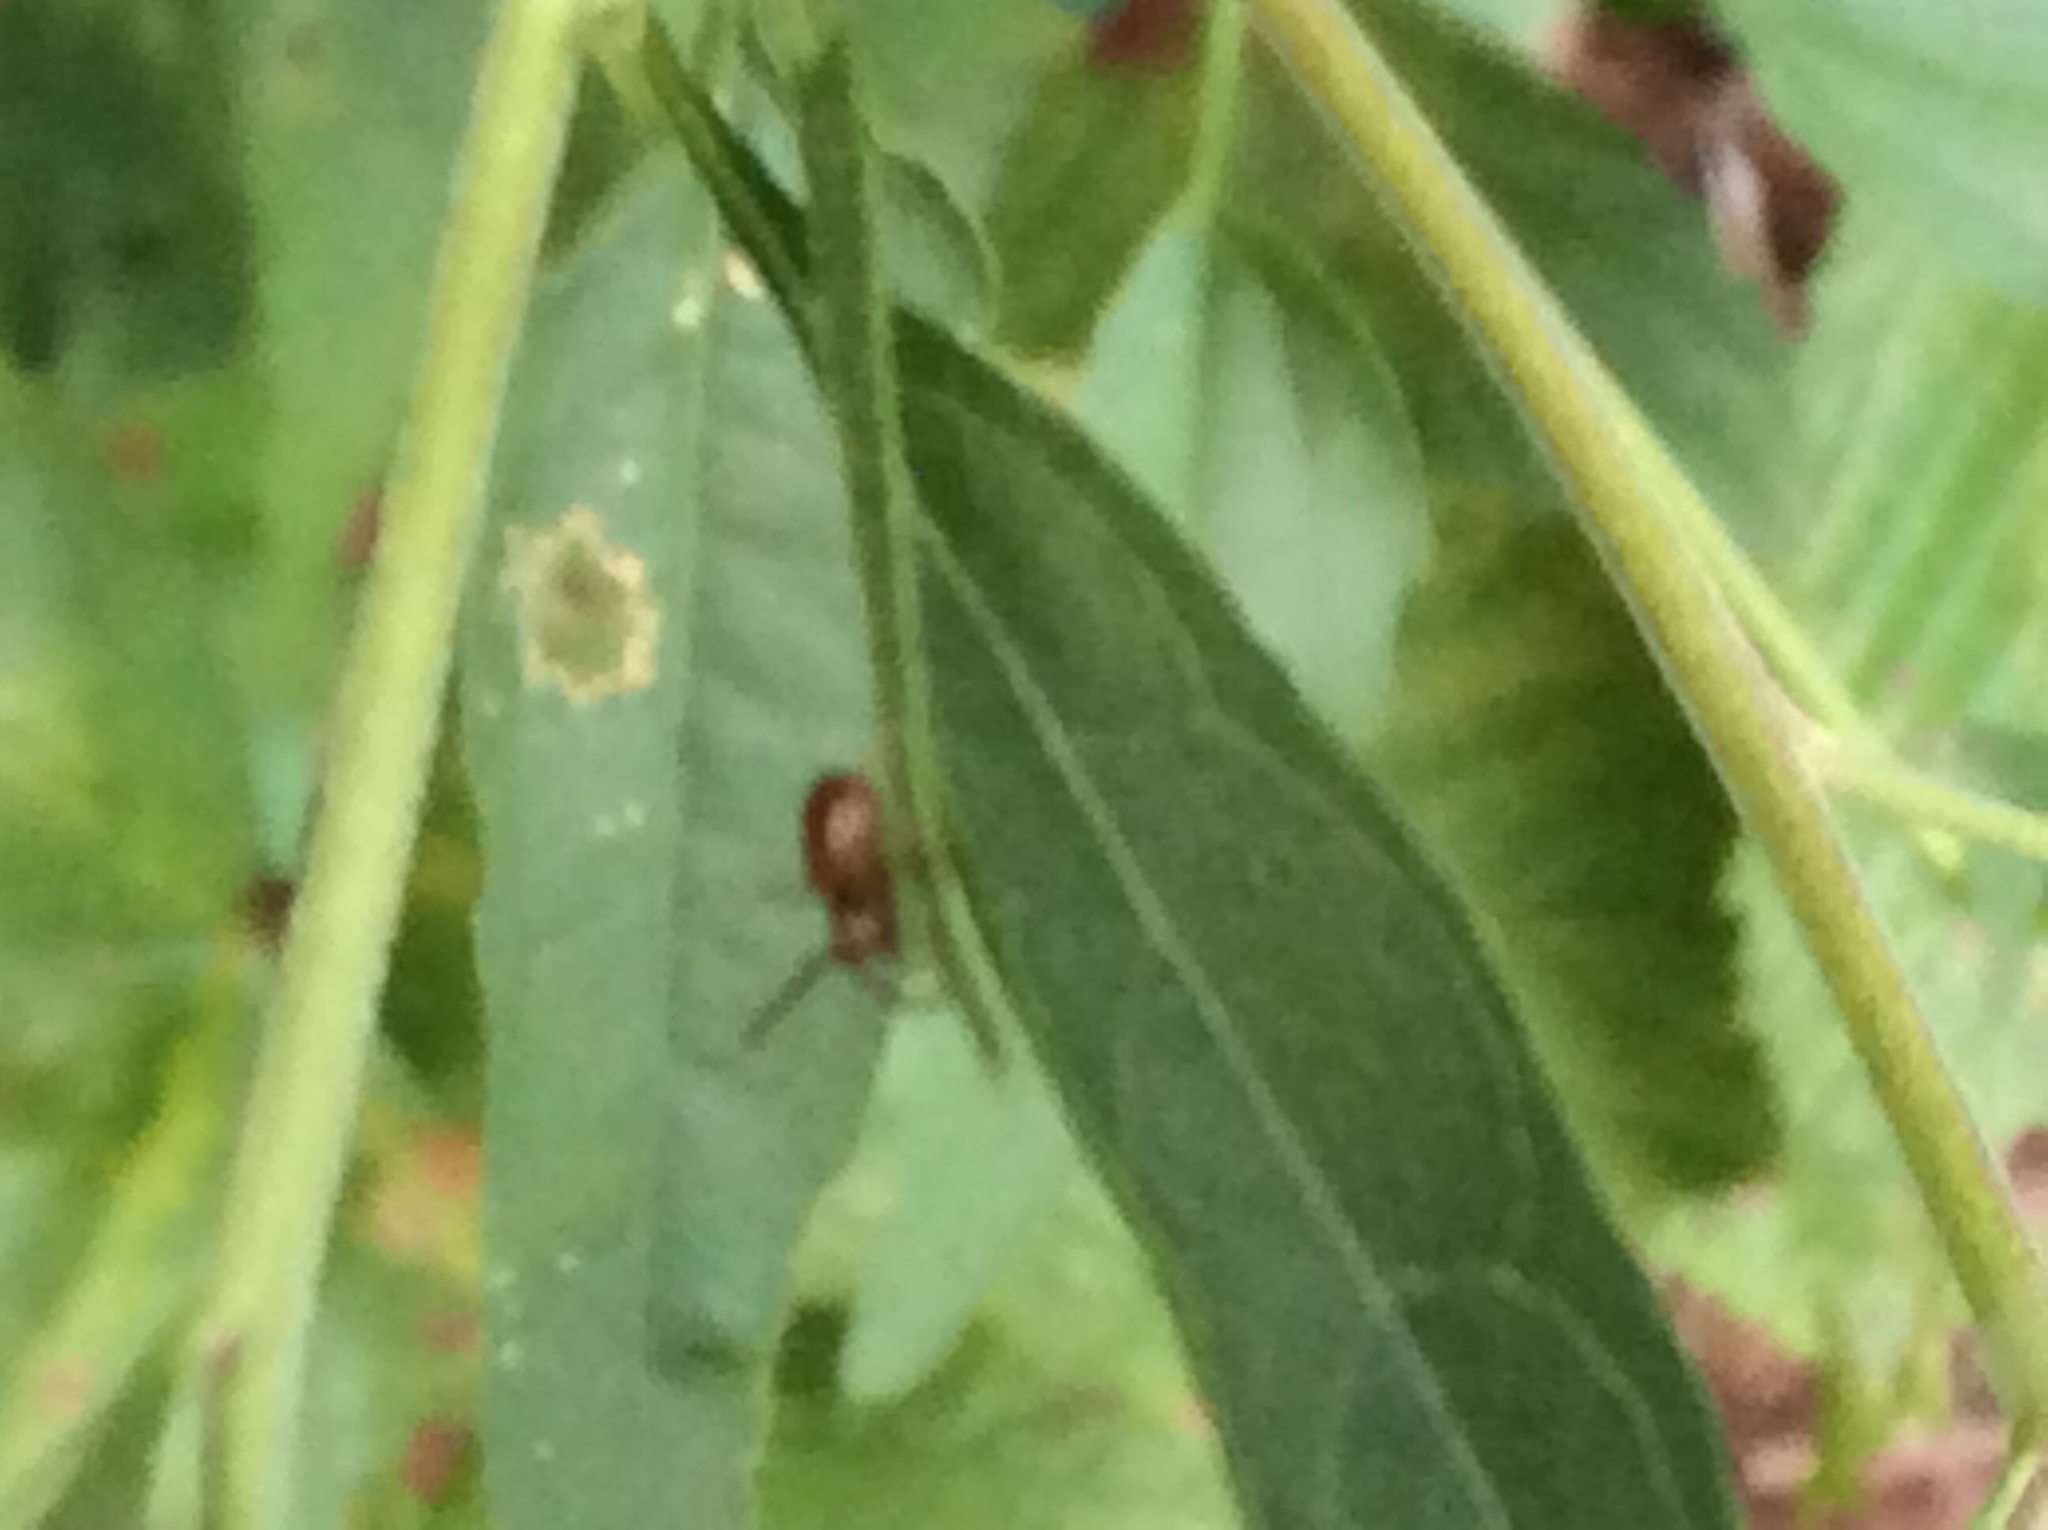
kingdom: Animalia
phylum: Arthropoda
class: Arachnida
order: Araneae
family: Thomisidae
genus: Synema
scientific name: Synema parvulum
